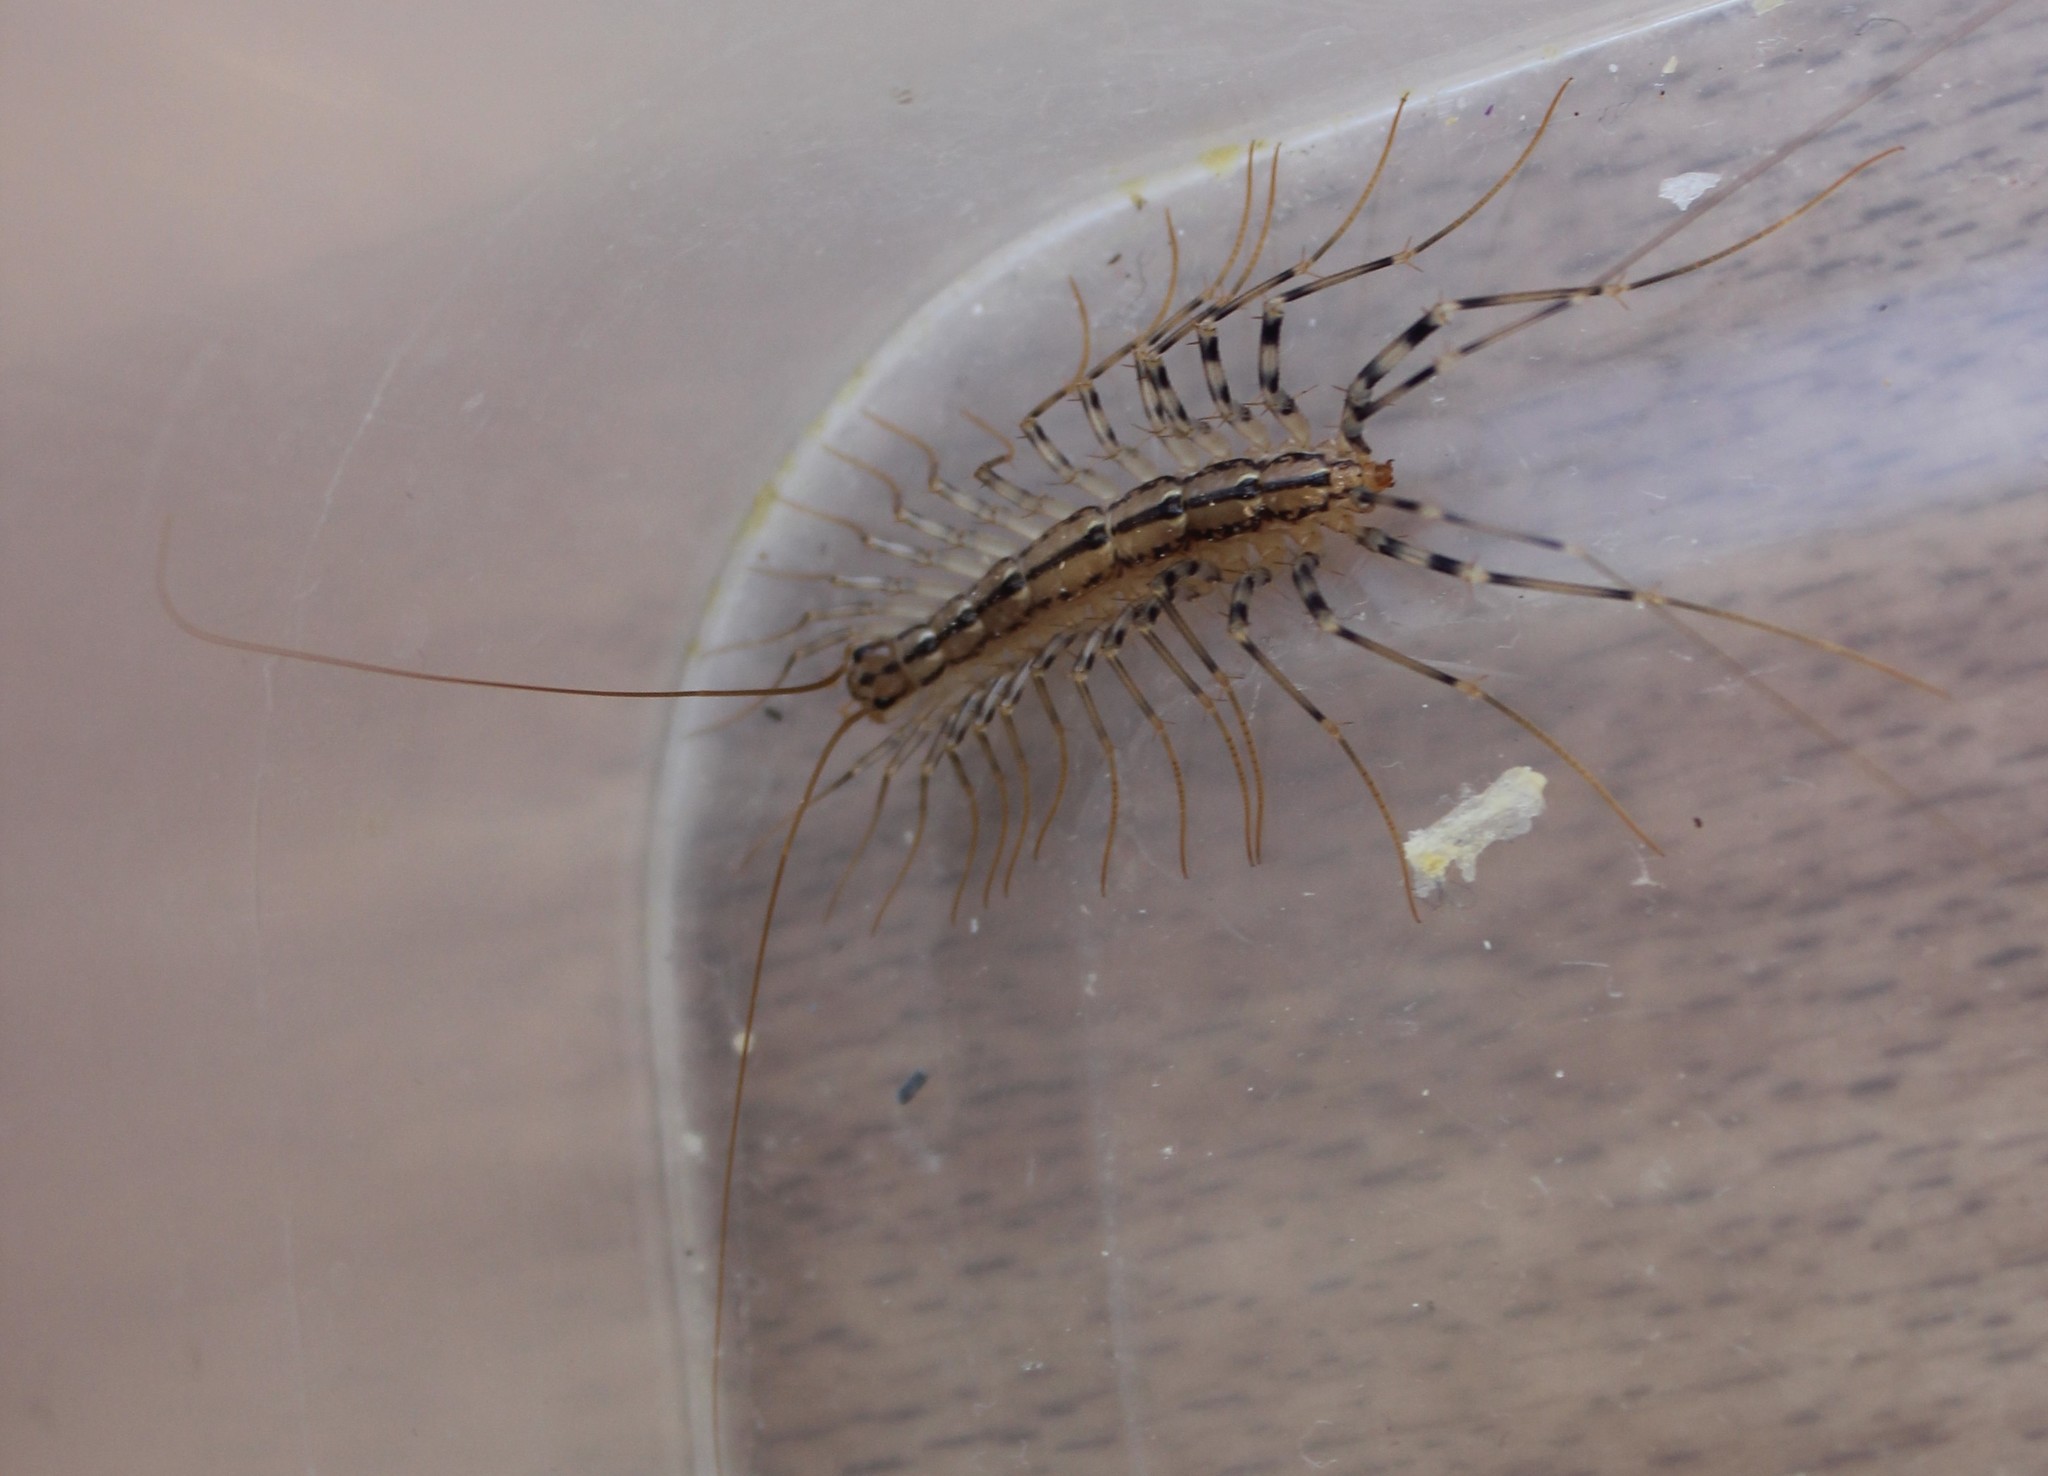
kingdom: Animalia
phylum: Arthropoda
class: Chilopoda
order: Scutigeromorpha
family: Scutigeridae
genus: Scutigera
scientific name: Scutigera coleoptrata
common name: House centipede
